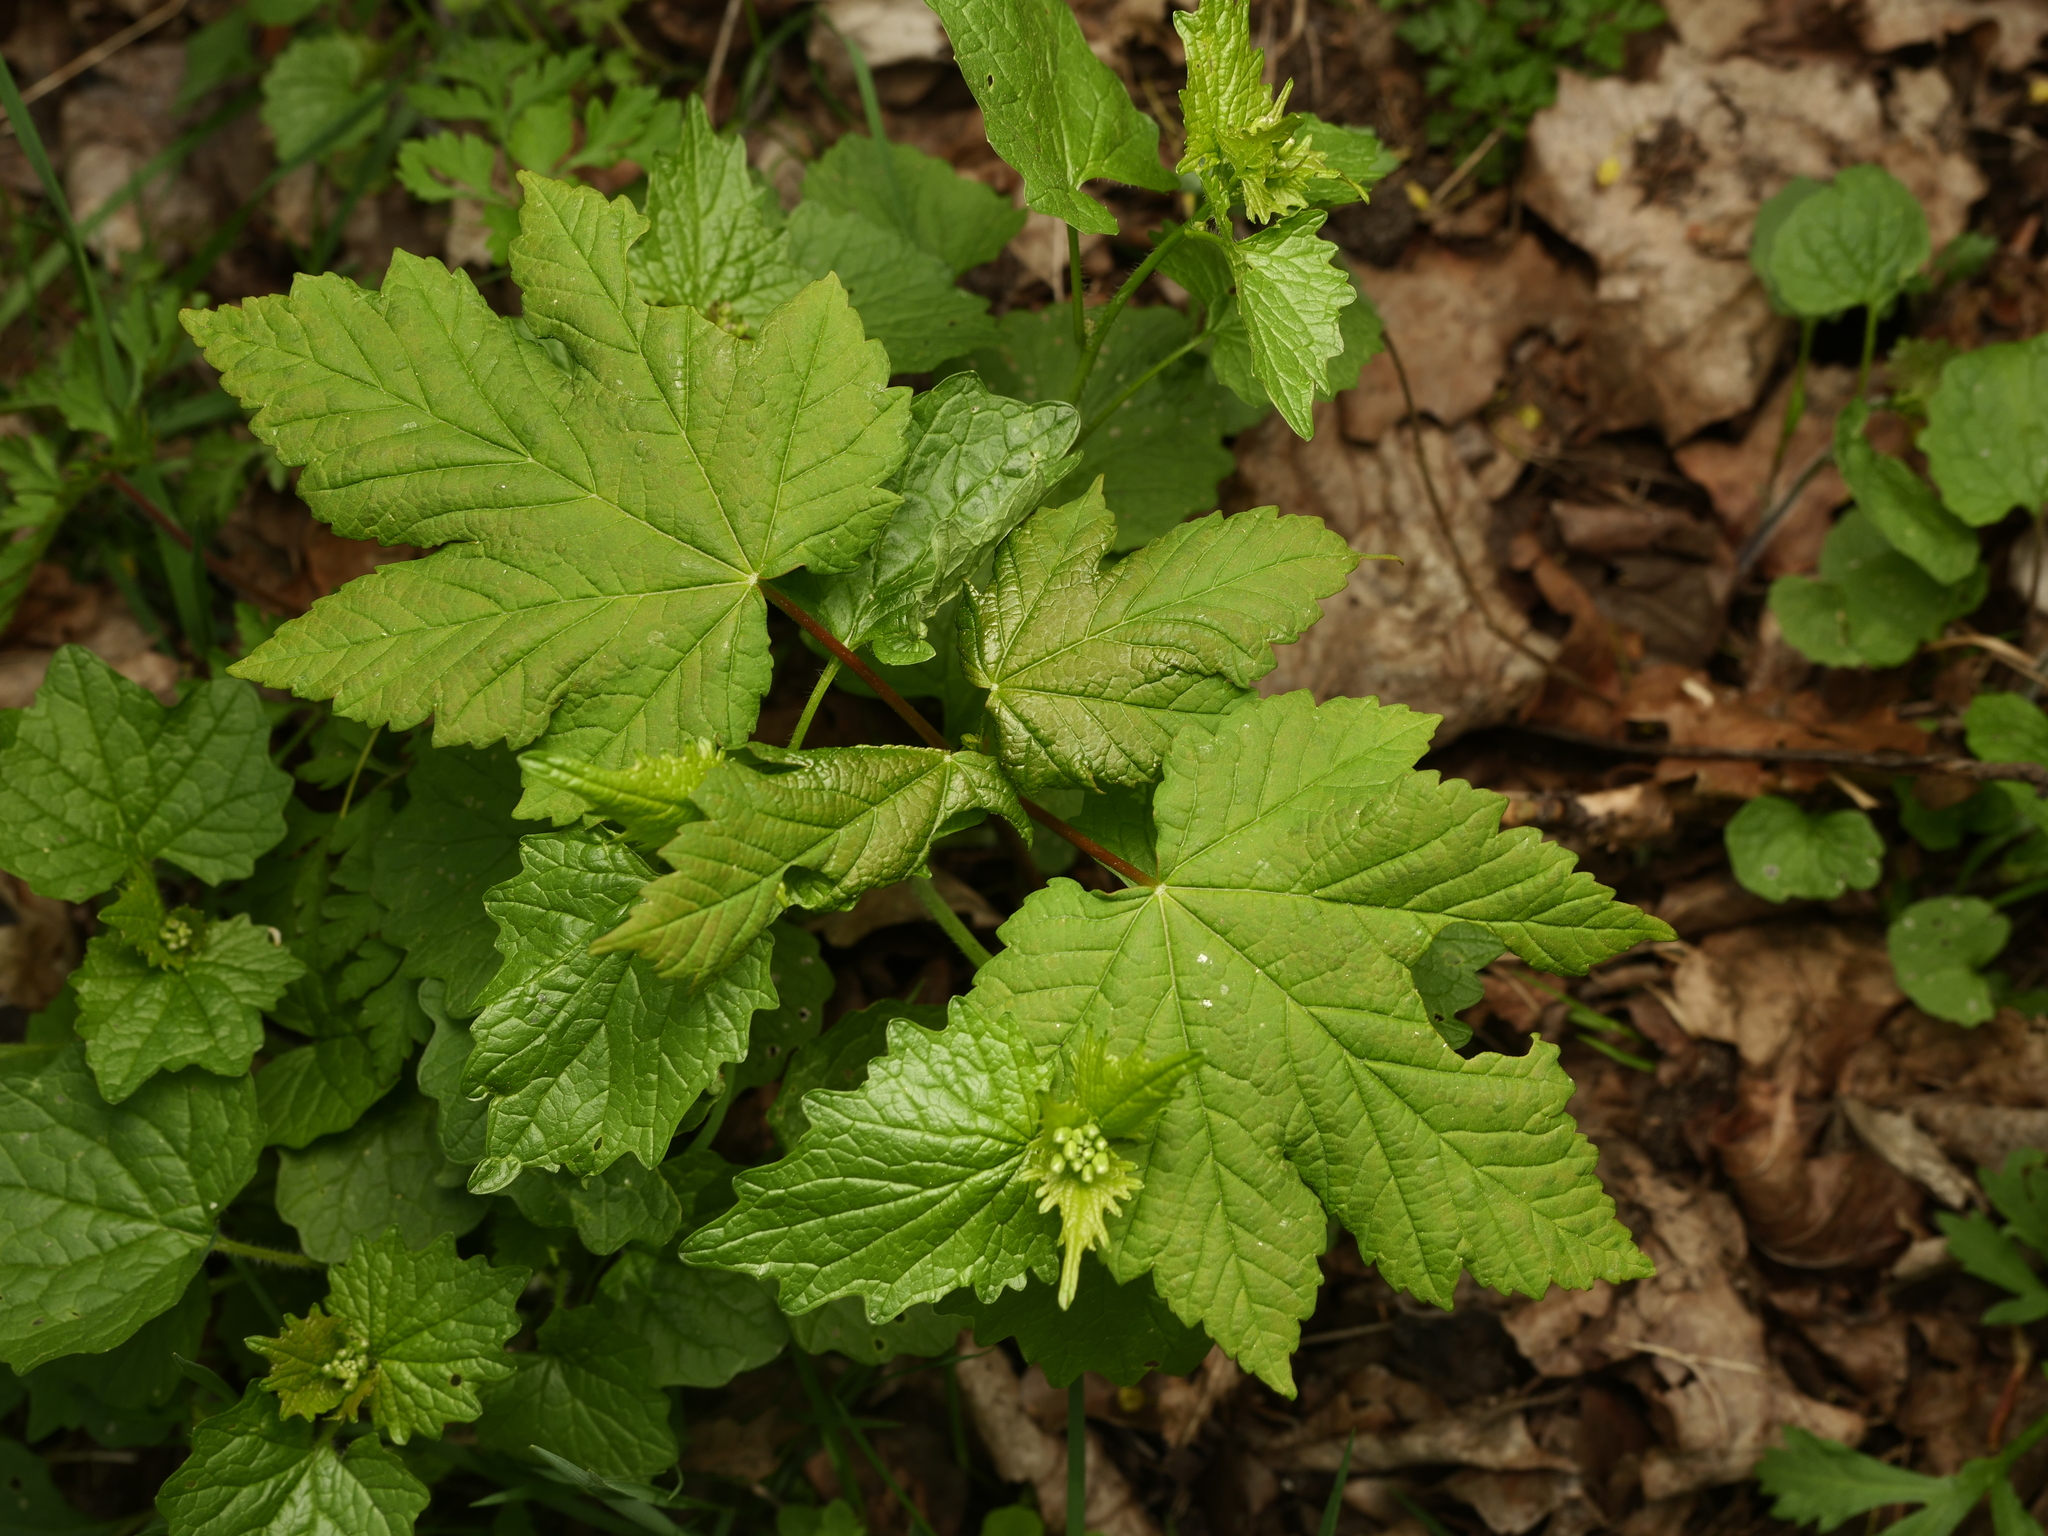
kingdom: Plantae
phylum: Tracheophyta
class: Magnoliopsida
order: Sapindales
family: Sapindaceae
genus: Acer
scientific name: Acer pseudoplatanus
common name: Sycamore
